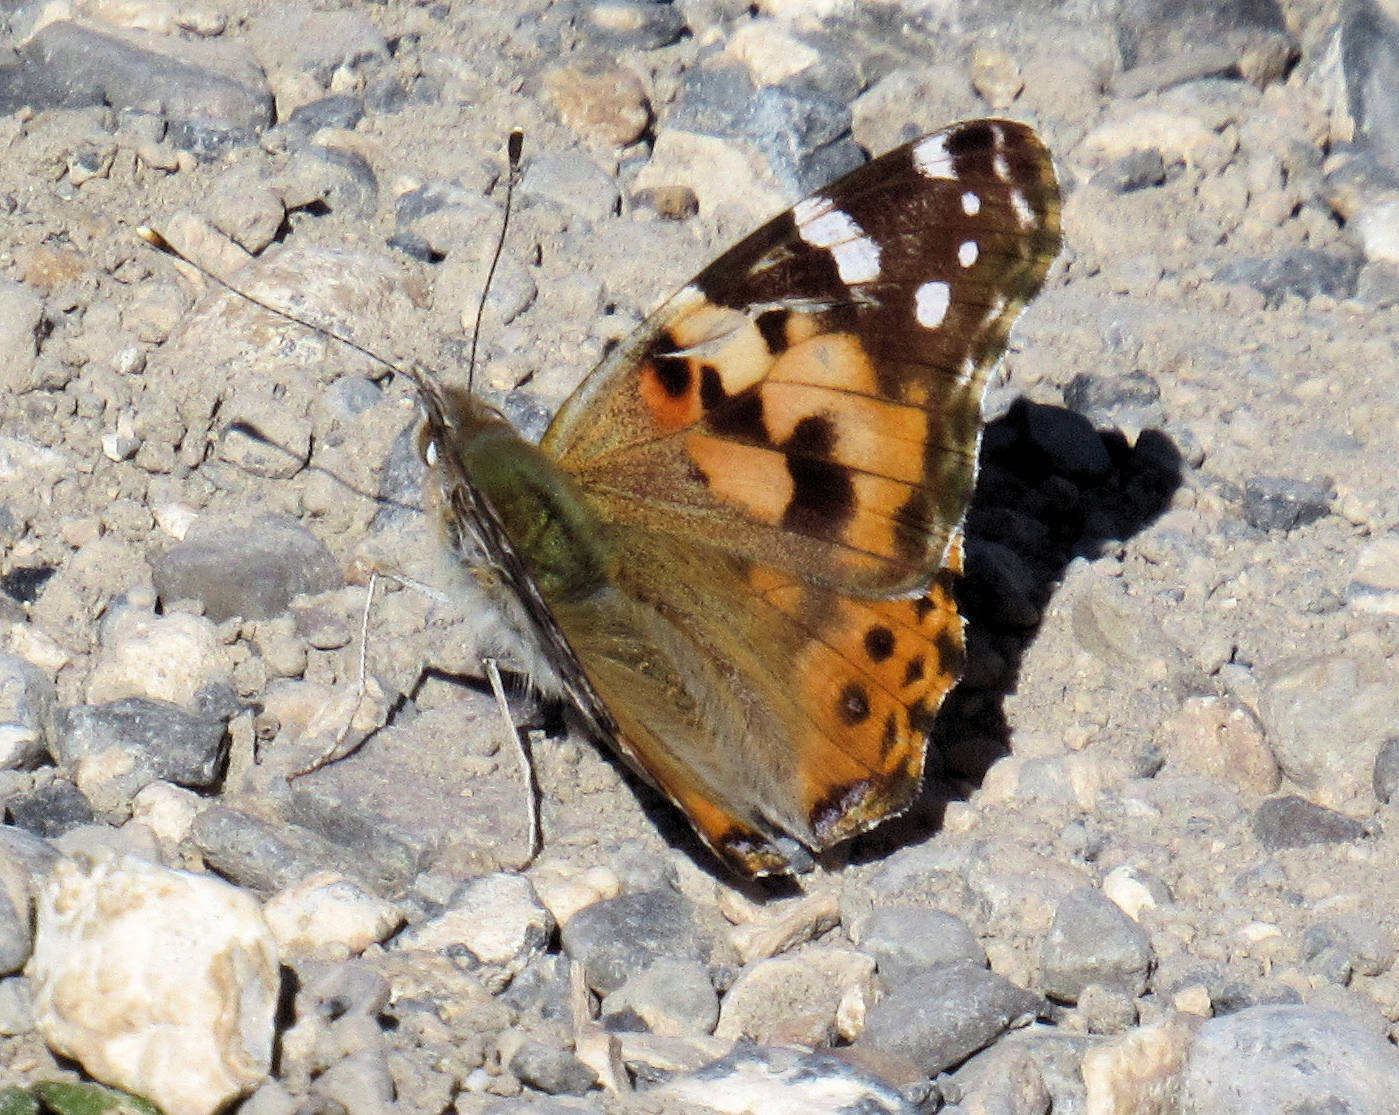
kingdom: Animalia
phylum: Arthropoda
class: Insecta
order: Lepidoptera
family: Nymphalidae
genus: Vanessa
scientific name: Vanessa cardui
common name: Painted lady
